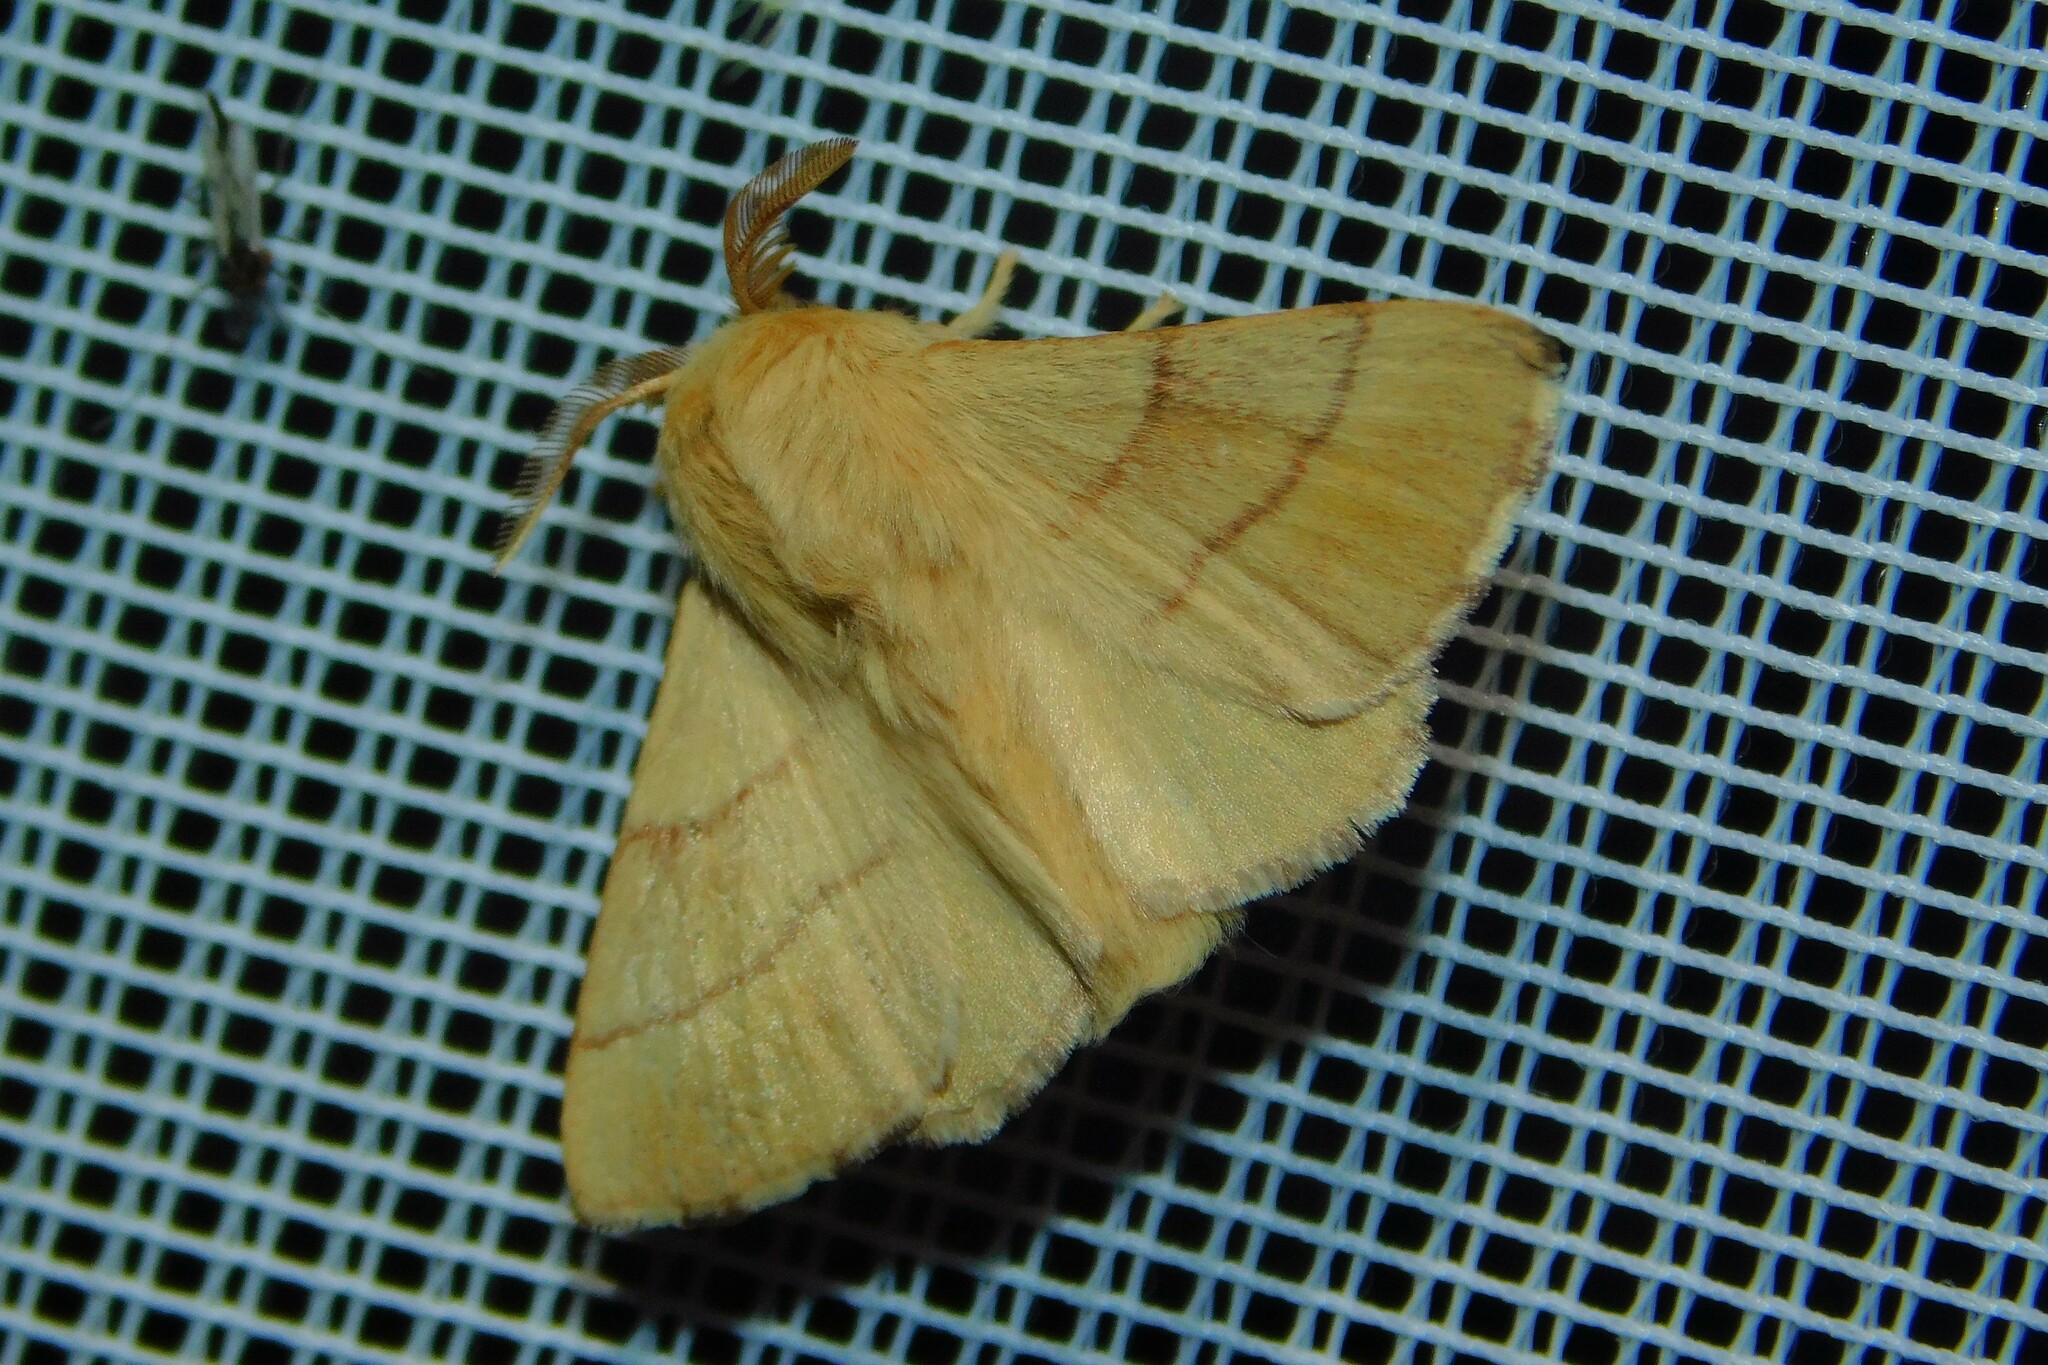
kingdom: Animalia
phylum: Arthropoda
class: Insecta
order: Lepidoptera
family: Lasiocampidae
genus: Malacosoma
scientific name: Malacosoma neustria
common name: The lackey
